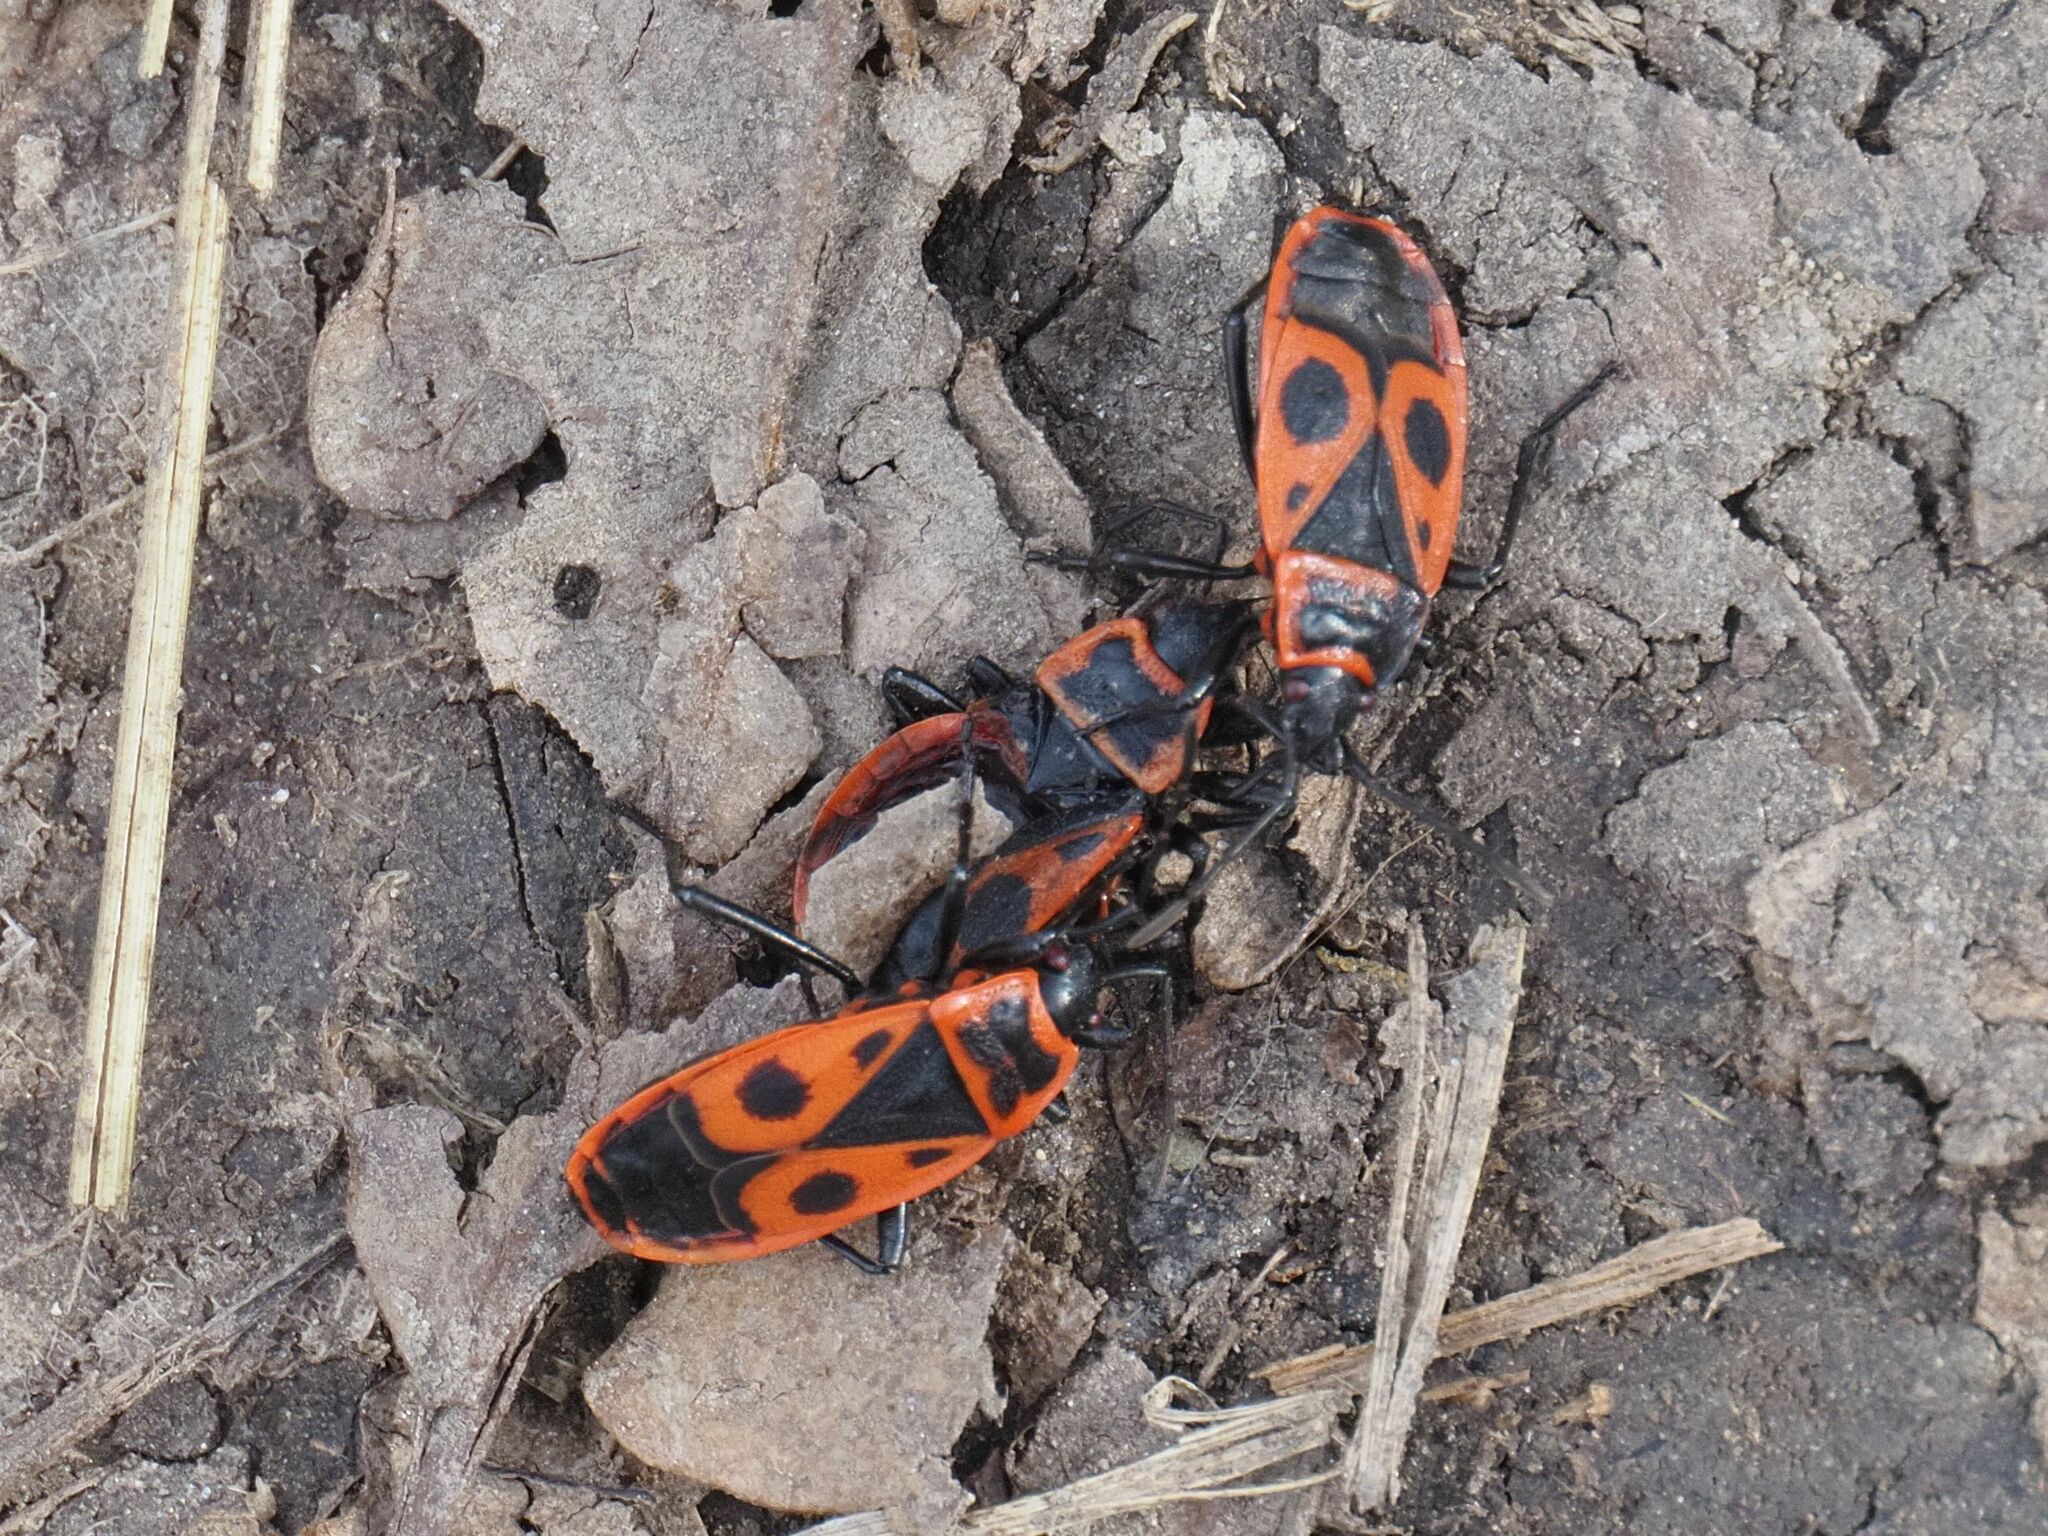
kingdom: Animalia
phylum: Arthropoda
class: Insecta
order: Hemiptera
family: Pyrrhocoridae
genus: Pyrrhocoris
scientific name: Pyrrhocoris apterus
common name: Firebug
